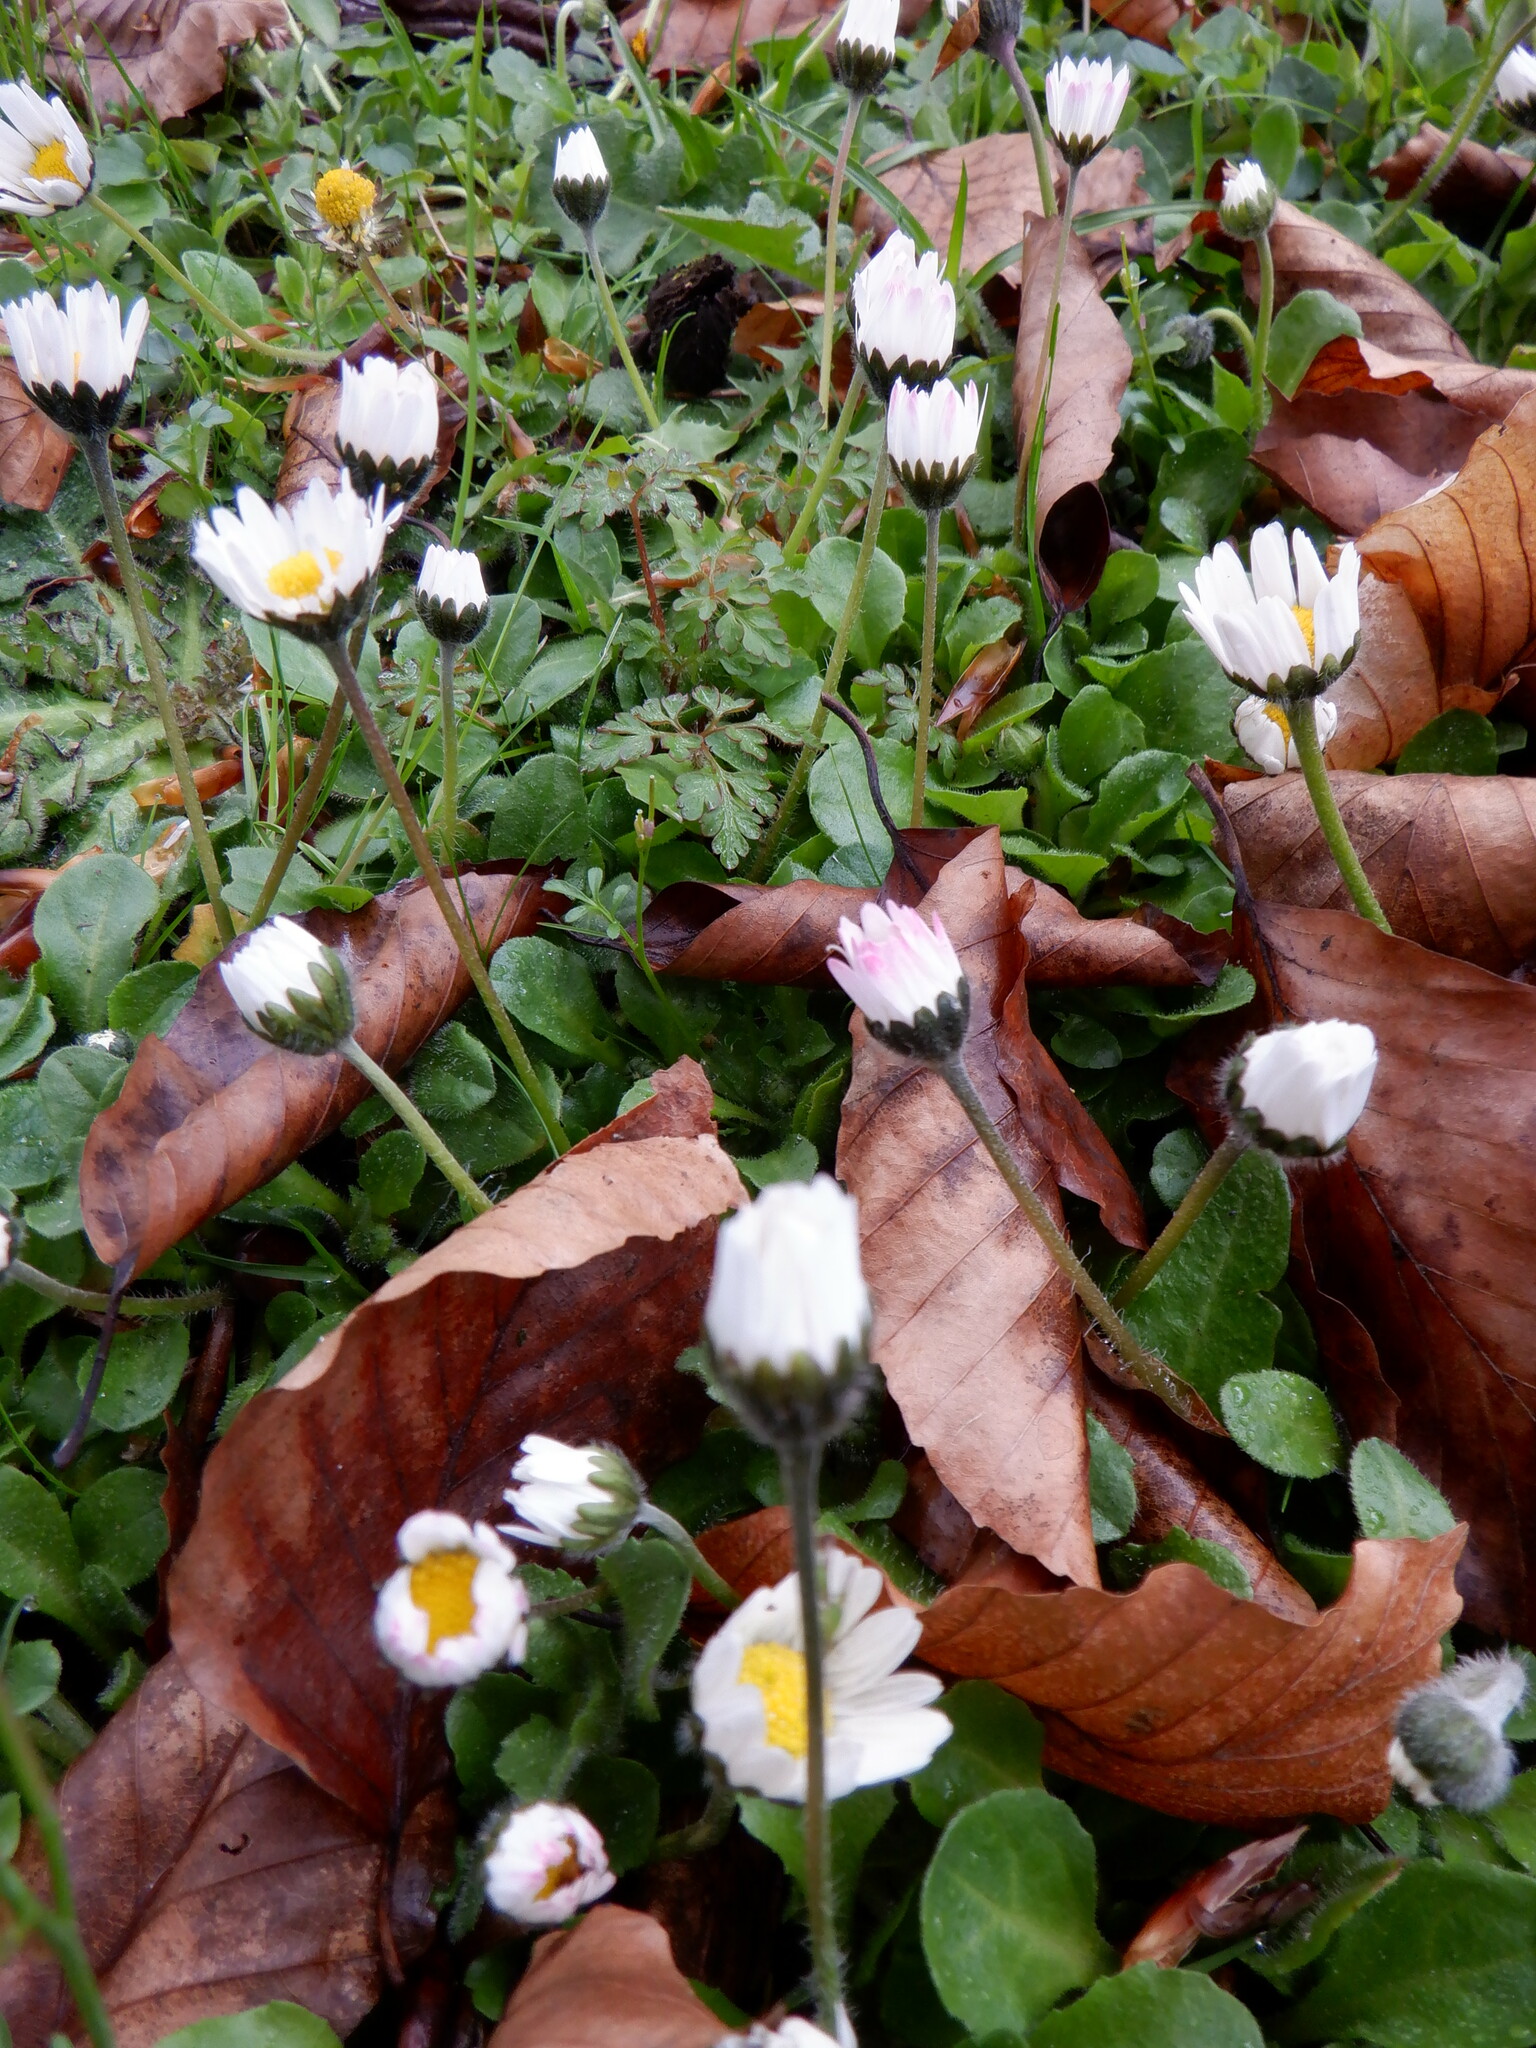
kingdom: Plantae
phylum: Tracheophyta
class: Magnoliopsida
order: Asterales
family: Asteraceae
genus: Bellis
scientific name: Bellis perennis
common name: Lawndaisy
